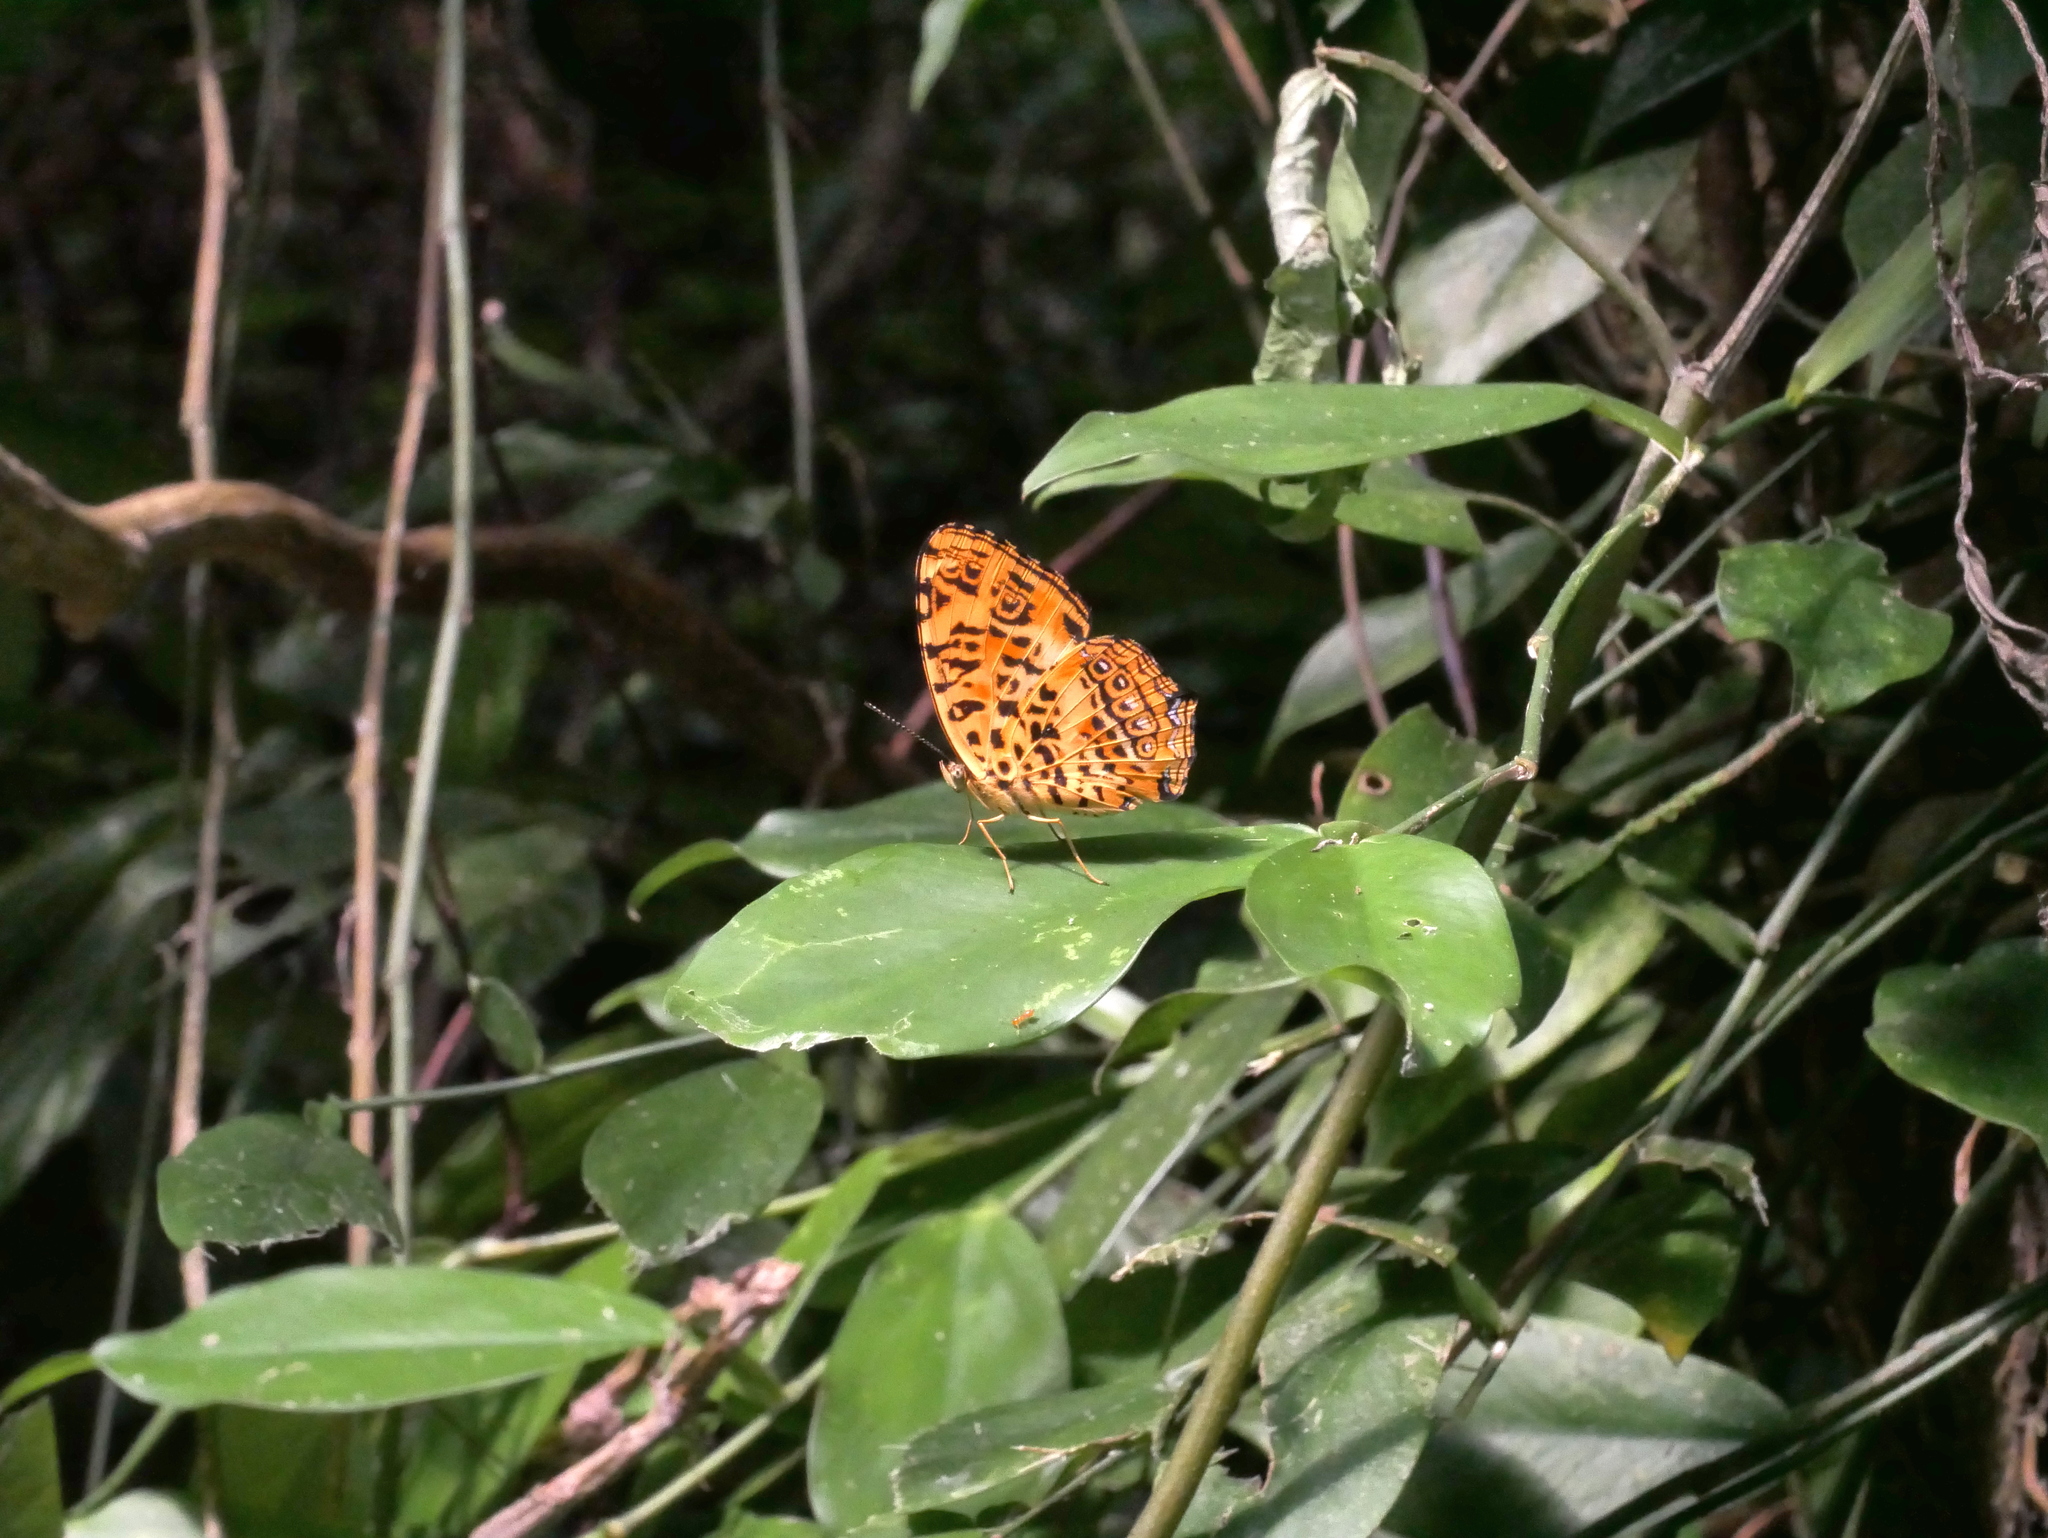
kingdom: Animalia
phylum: Arthropoda
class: Insecta
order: Lepidoptera
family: Nymphalidae
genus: Symbrenthia
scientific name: Symbrenthia brabira
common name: Yellow jester
